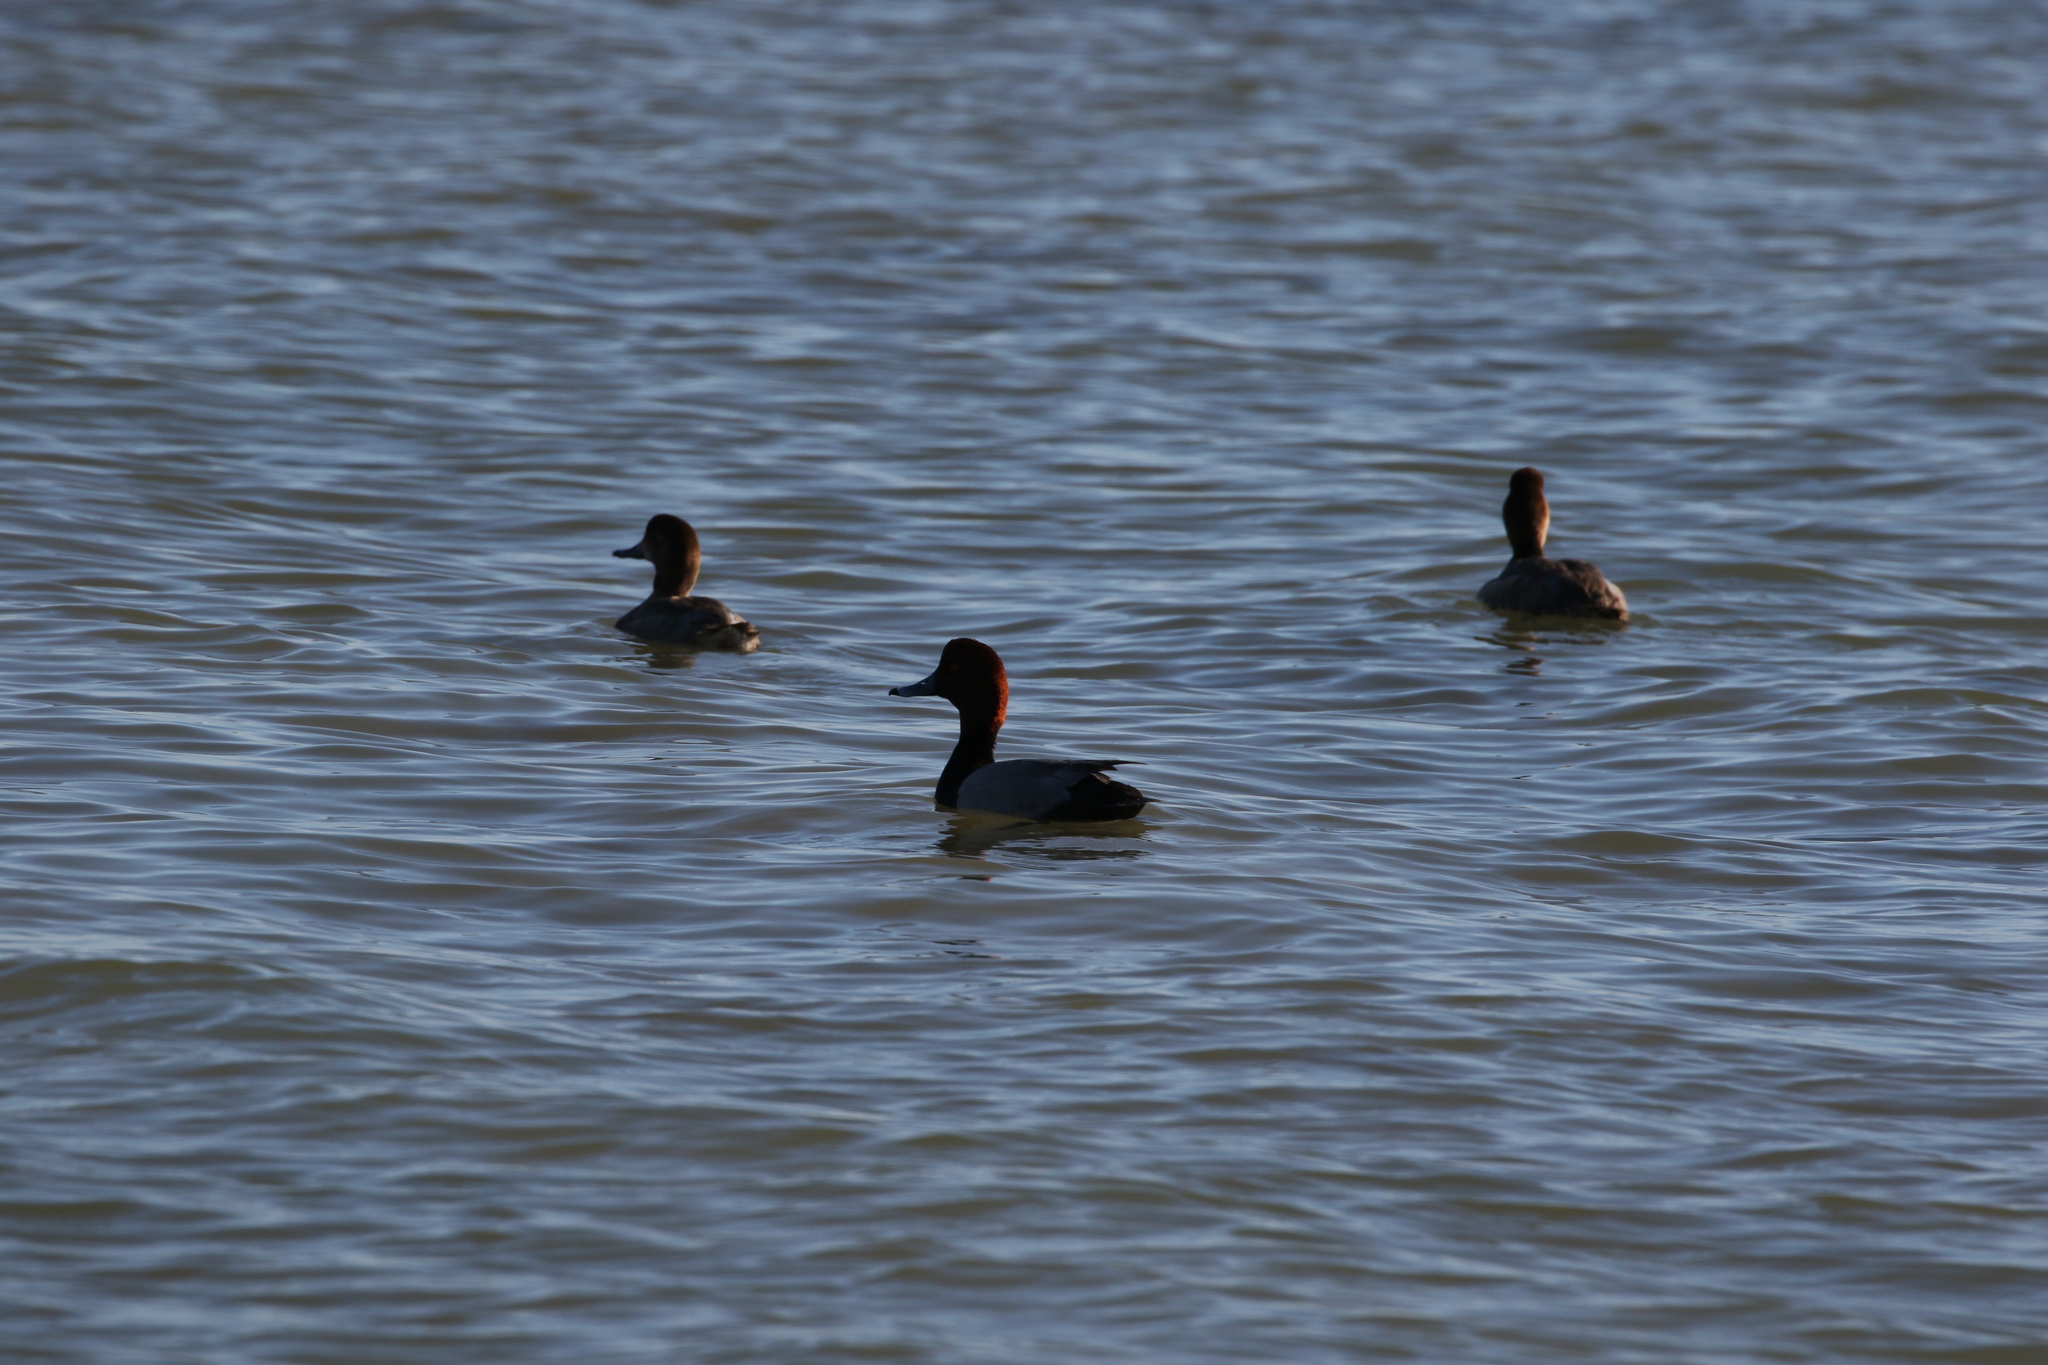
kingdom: Animalia
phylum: Chordata
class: Aves
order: Anseriformes
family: Anatidae
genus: Aythya
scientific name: Aythya americana
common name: Redhead
